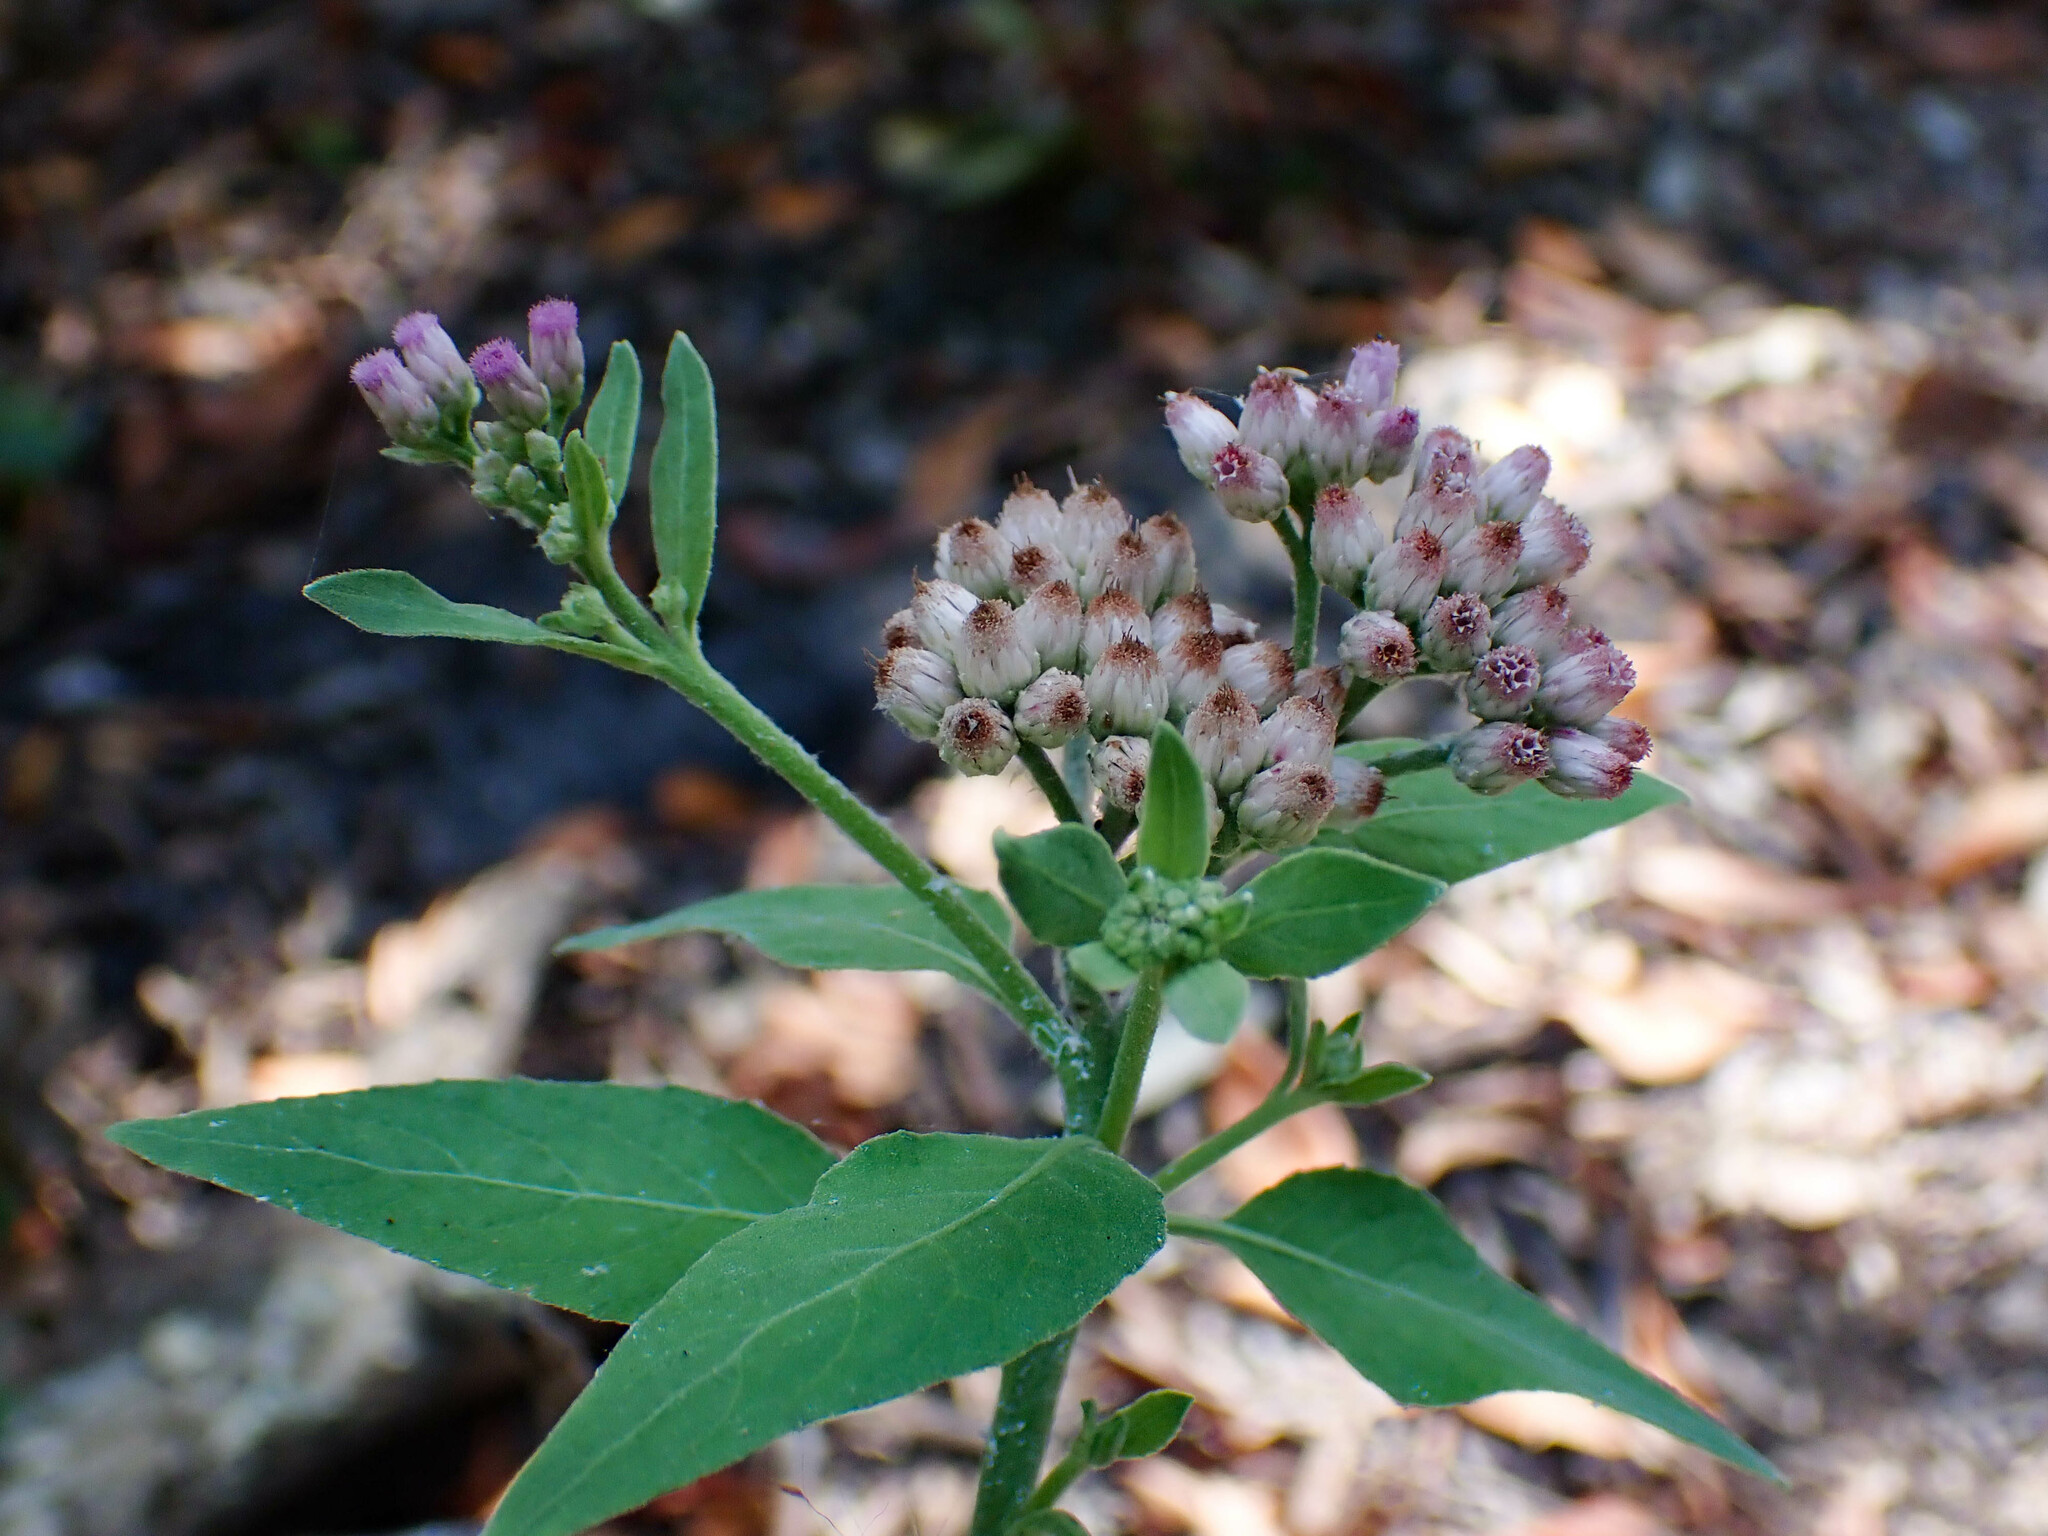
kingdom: Plantae
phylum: Tracheophyta
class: Magnoliopsida
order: Asterales
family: Asteraceae
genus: Pluchea
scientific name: Pluchea odorata
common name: Saltmarsh fleabane
